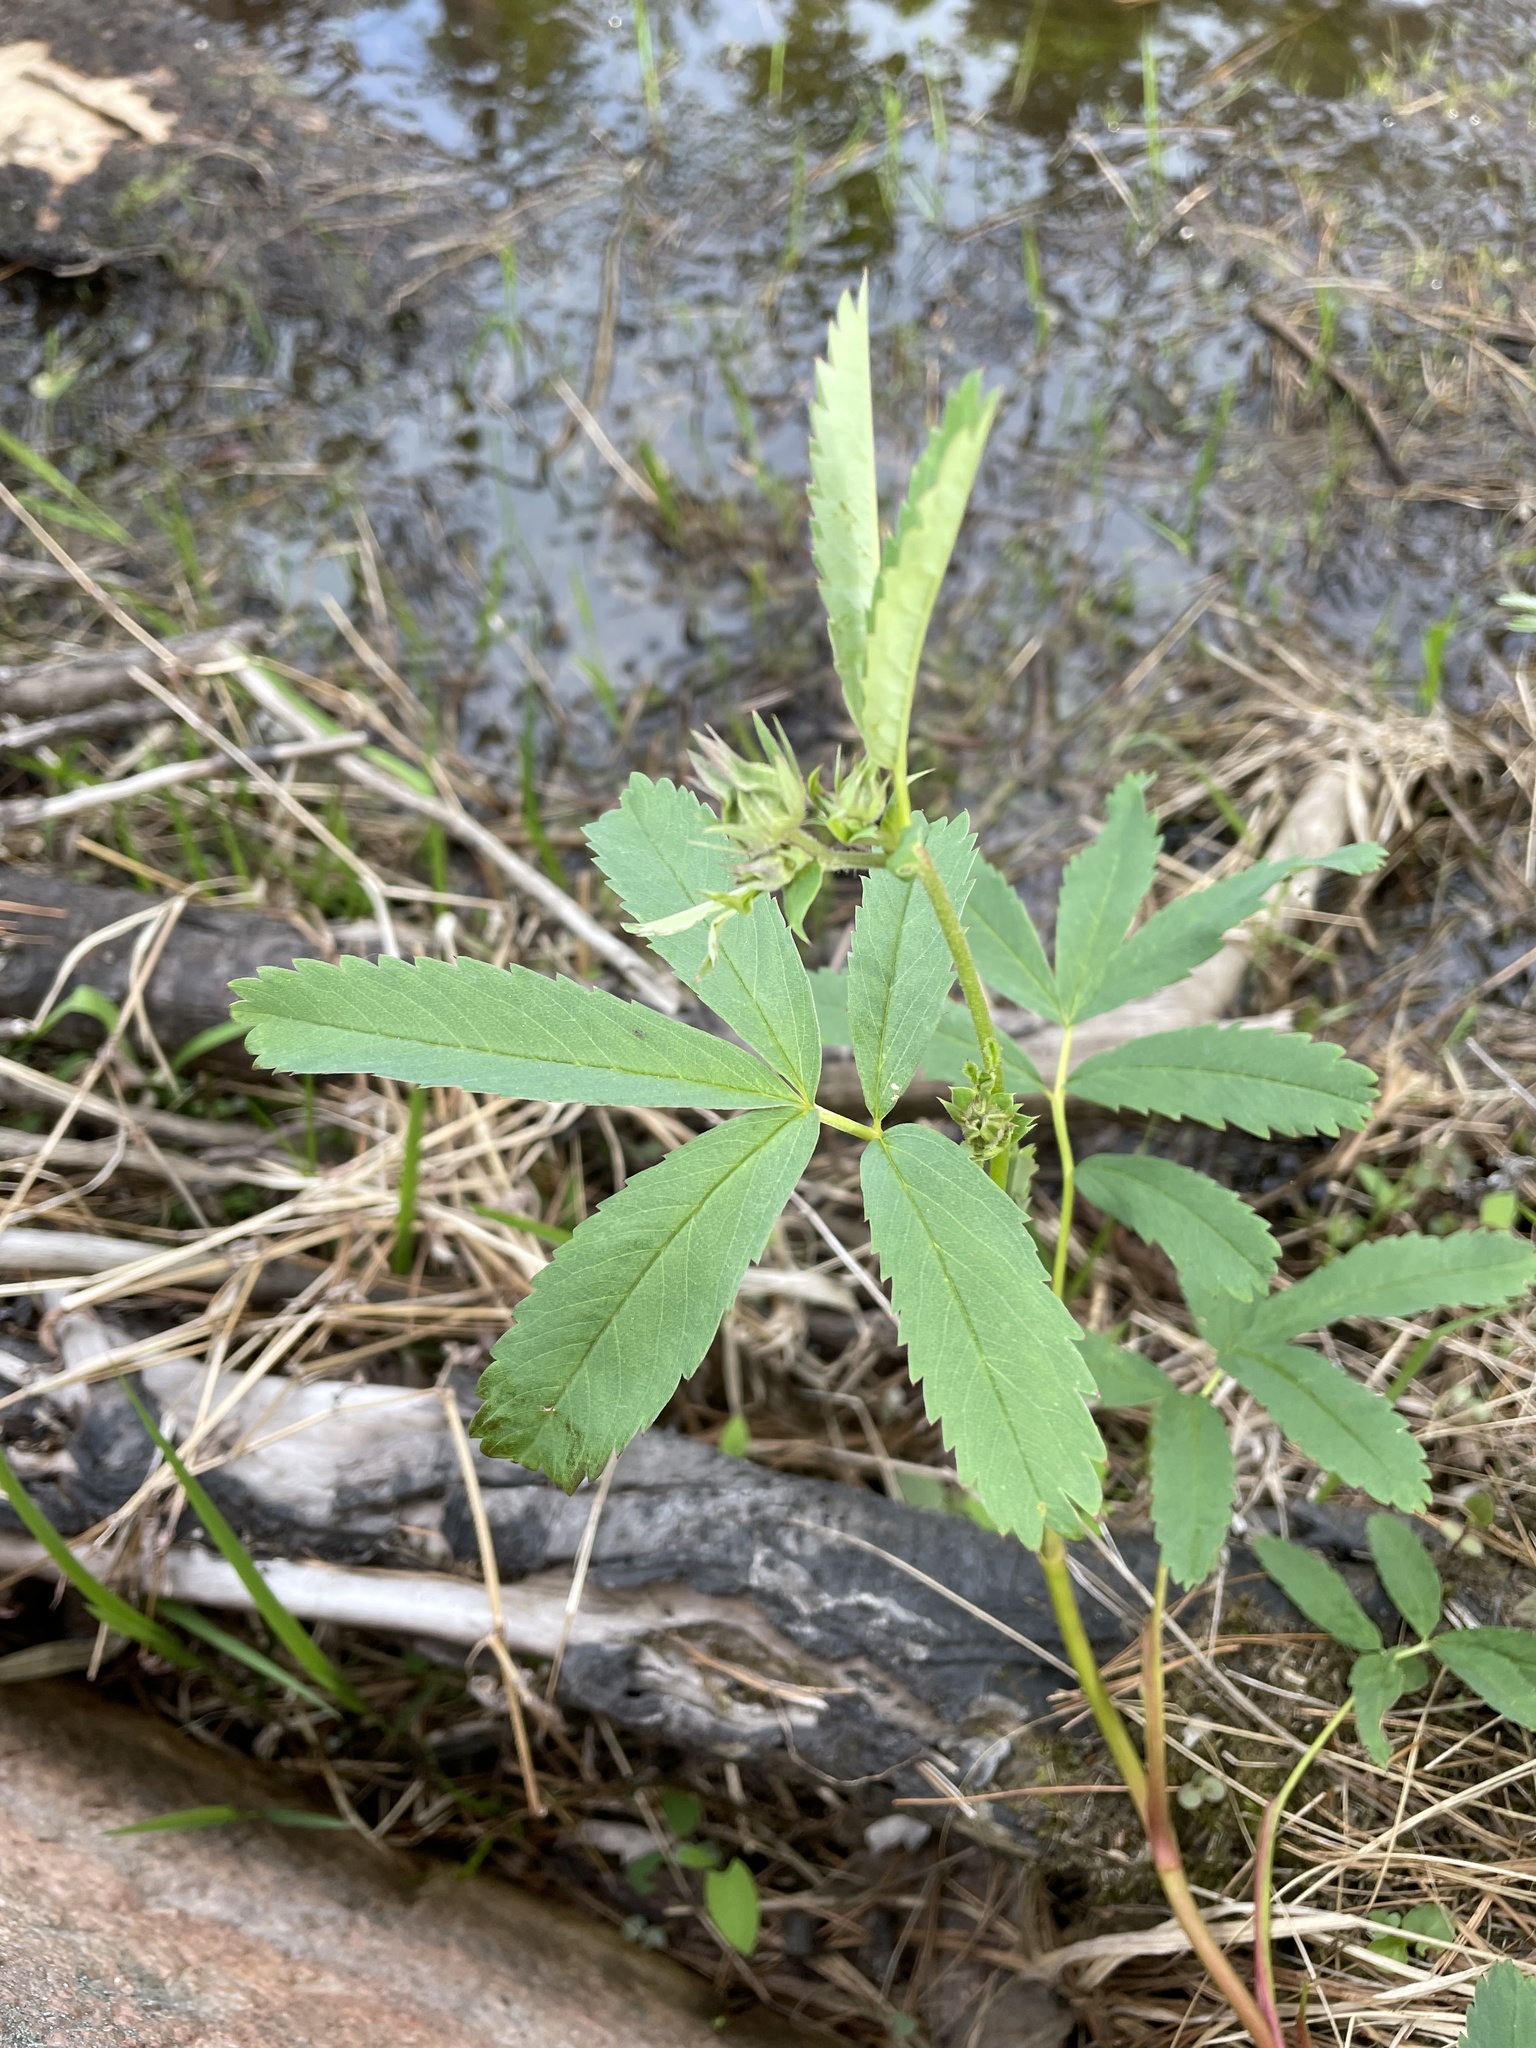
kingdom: Plantae
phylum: Tracheophyta
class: Magnoliopsida
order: Rosales
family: Rosaceae
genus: Comarum
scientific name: Comarum palustre
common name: Marsh cinquefoil
